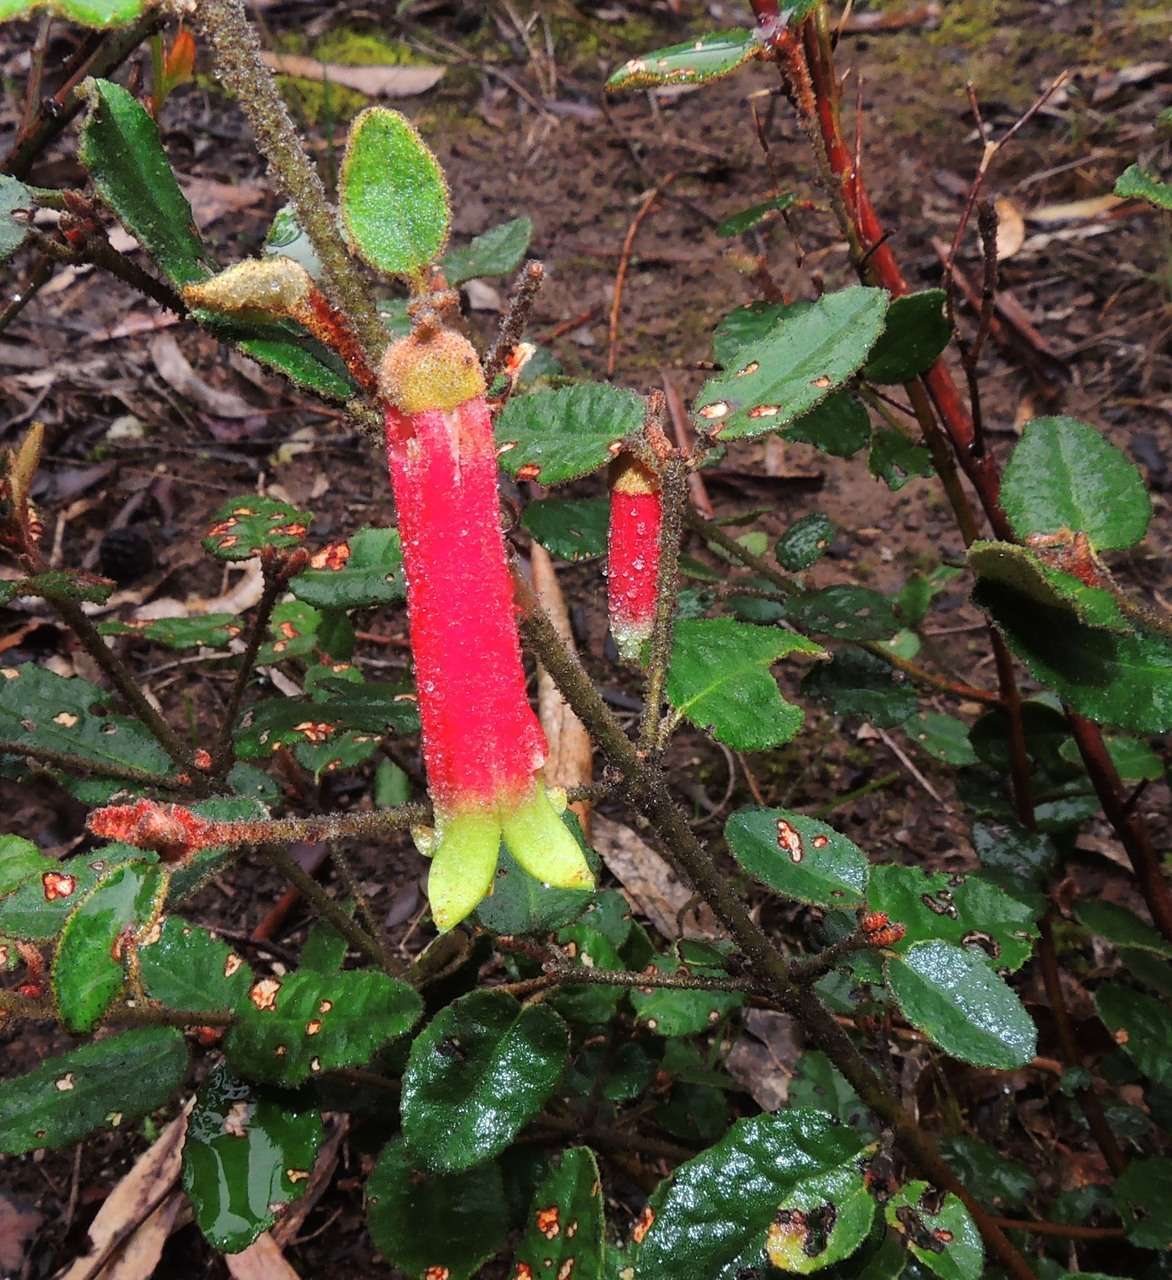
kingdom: Plantae
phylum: Tracheophyta
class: Magnoliopsida
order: Sapindales
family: Rutaceae
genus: Correa
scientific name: Correa reflexa
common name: Common correa
